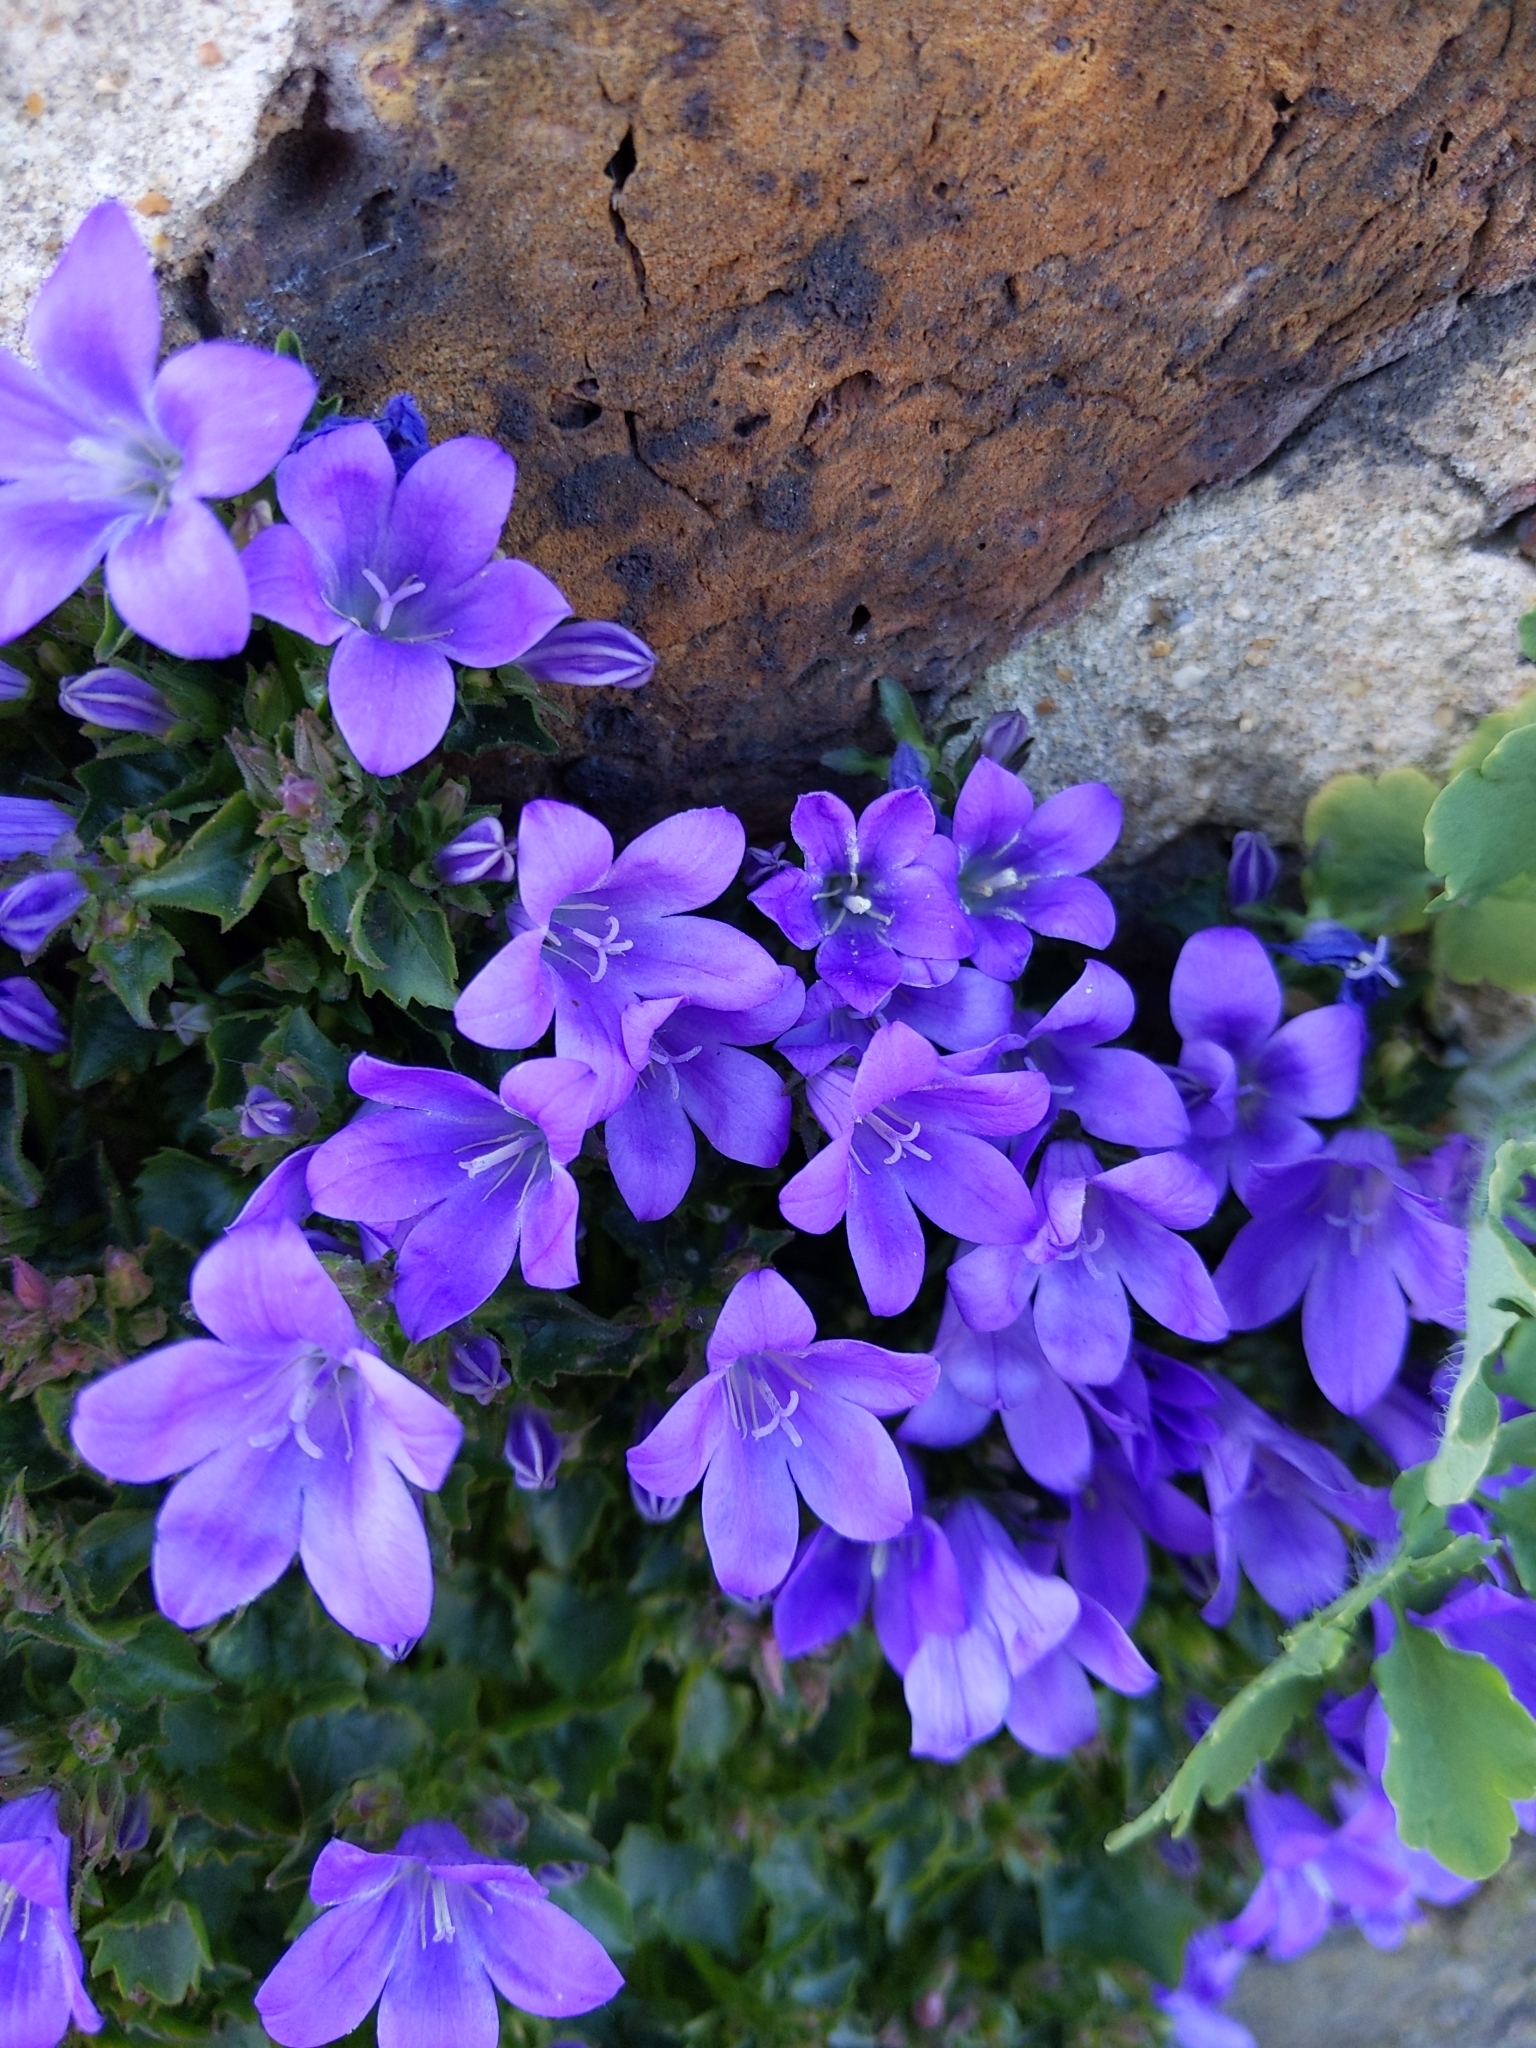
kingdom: Plantae
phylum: Tracheophyta
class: Magnoliopsida
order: Asterales
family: Campanulaceae
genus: Campanula
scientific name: Campanula portenschlagiana
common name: Adria bellflower
